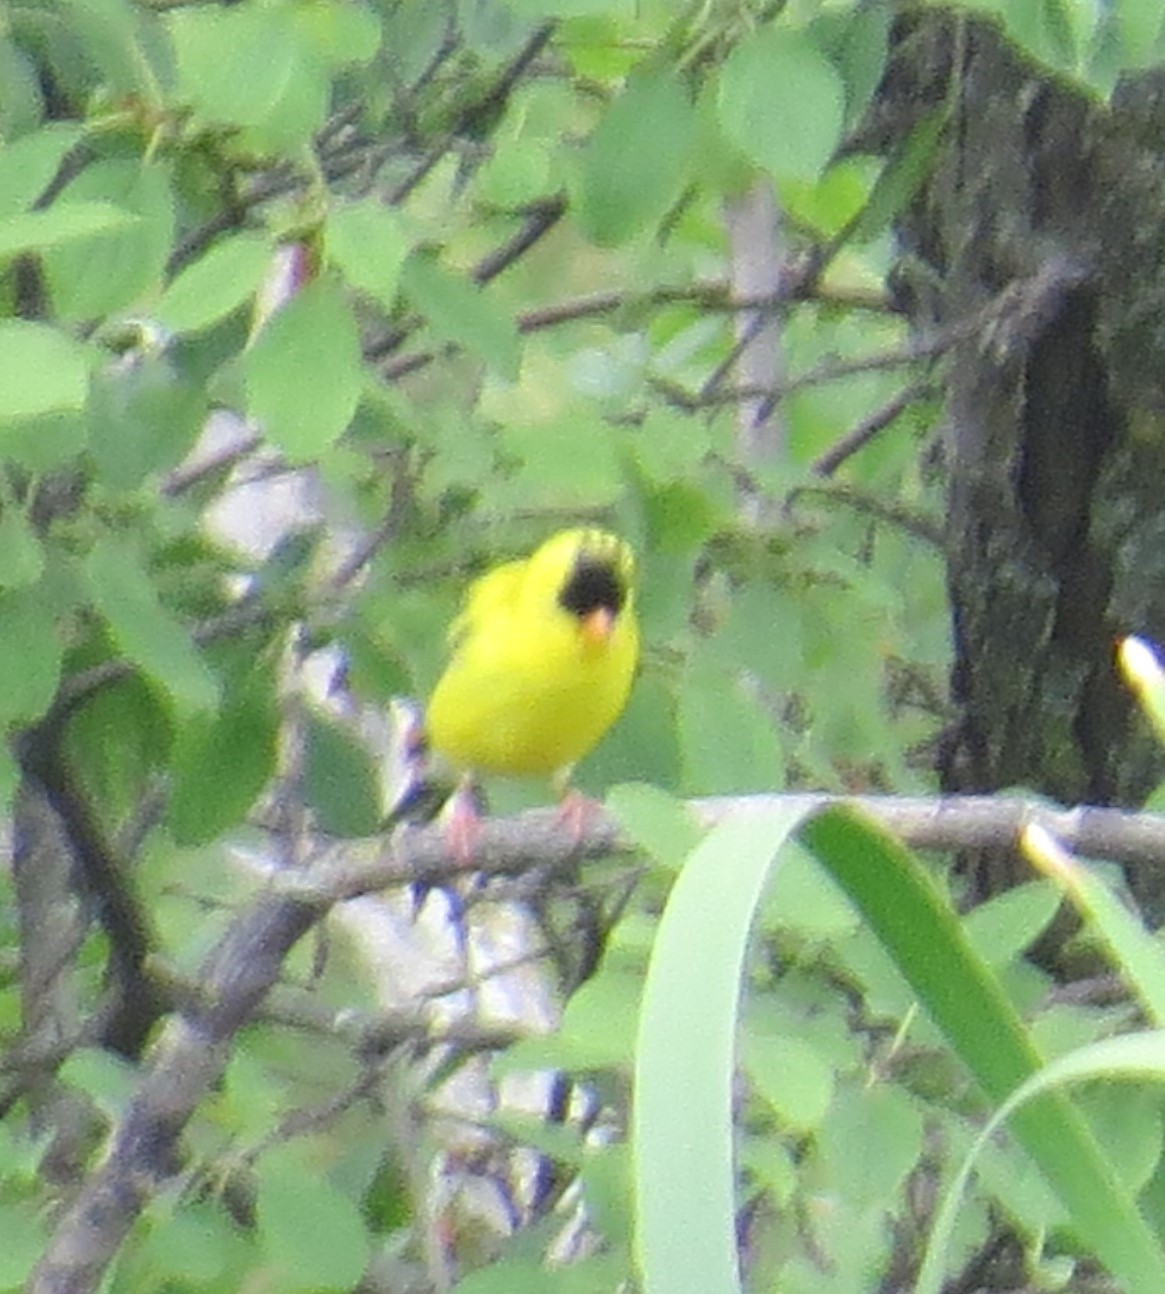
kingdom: Animalia
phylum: Chordata
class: Aves
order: Passeriformes
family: Fringillidae
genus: Spinus
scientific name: Spinus tristis
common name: American goldfinch
